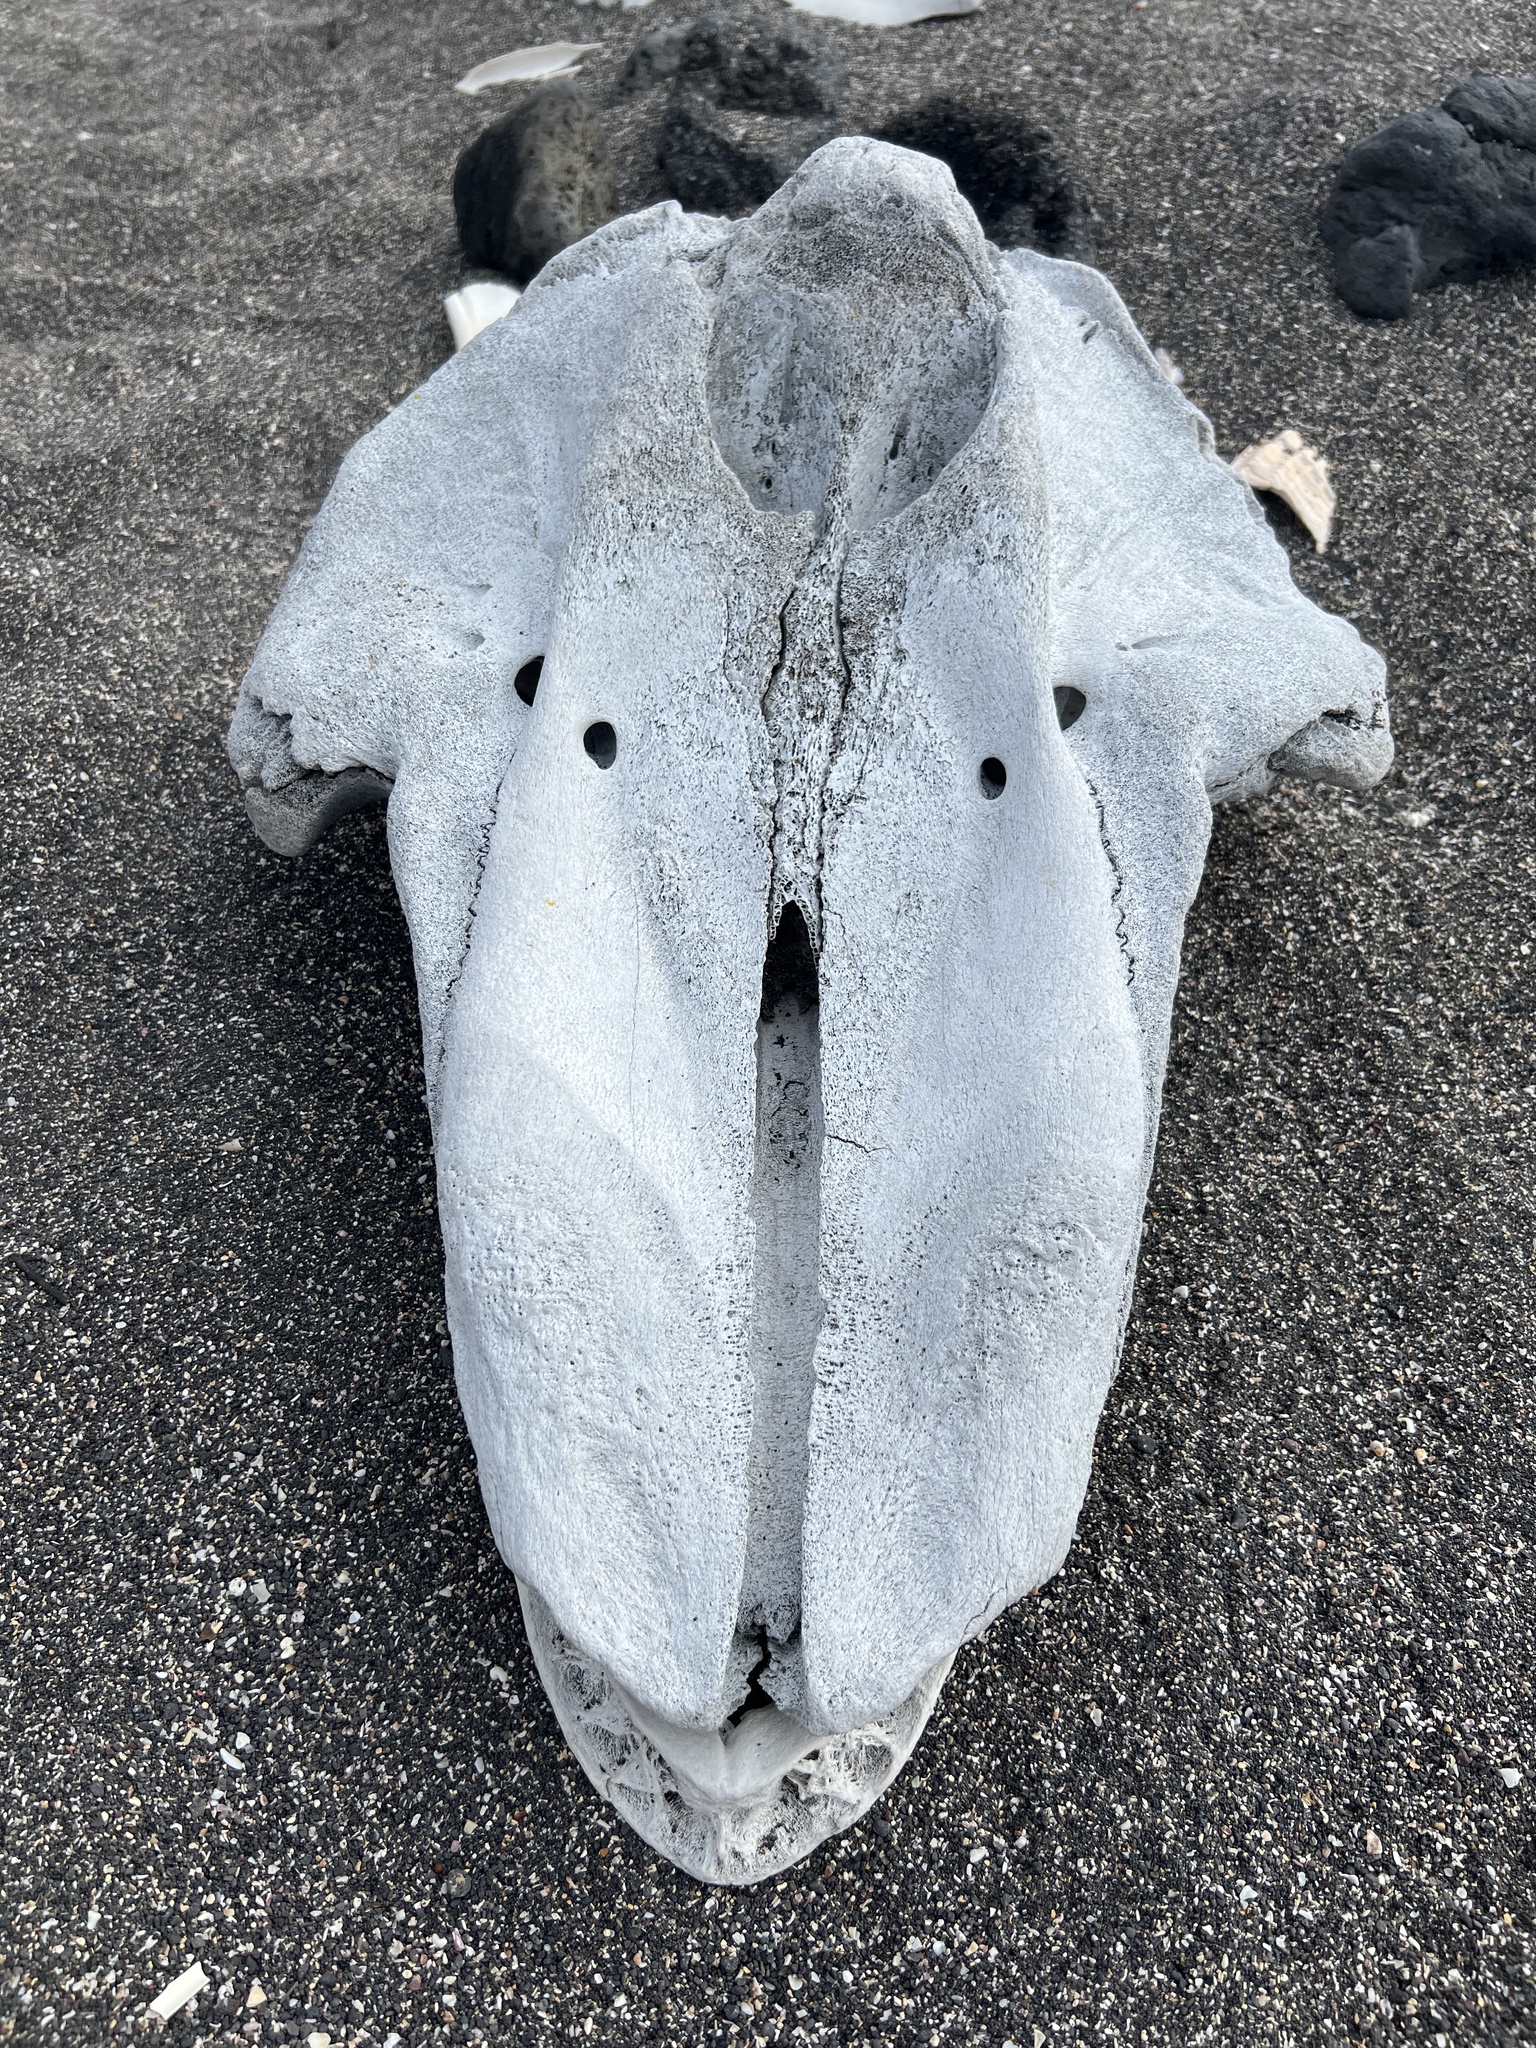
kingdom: Animalia
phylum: Chordata
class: Mammalia
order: Cetacea
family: Delphinidae
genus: Globicephala
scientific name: Globicephala macrorhynchus
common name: Short-finned pilot whale
